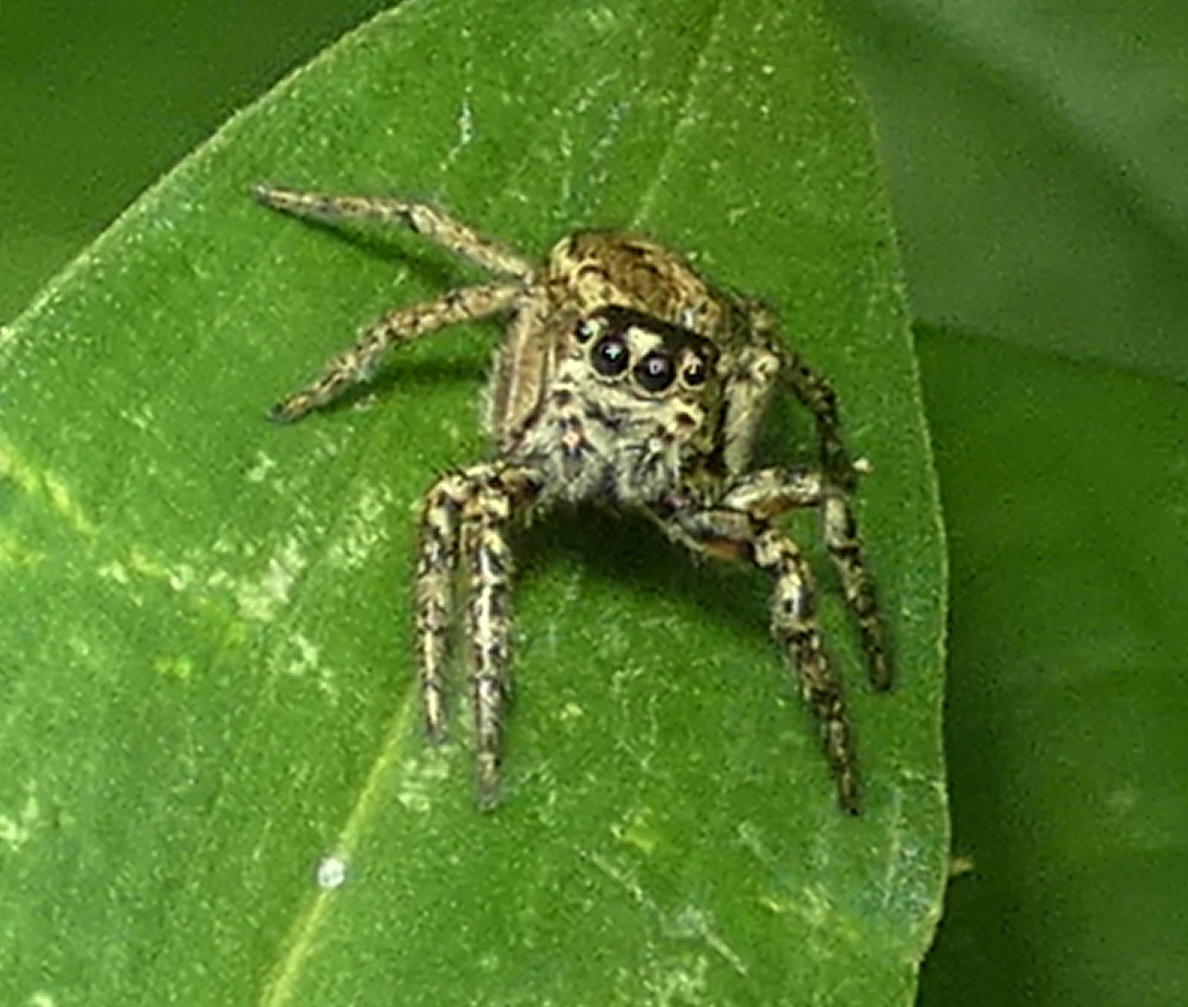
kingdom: Animalia
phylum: Arthropoda
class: Arachnida
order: Araneae
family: Salticidae
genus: Leptofreya
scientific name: Leptofreya ambigua
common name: Jumping spider
